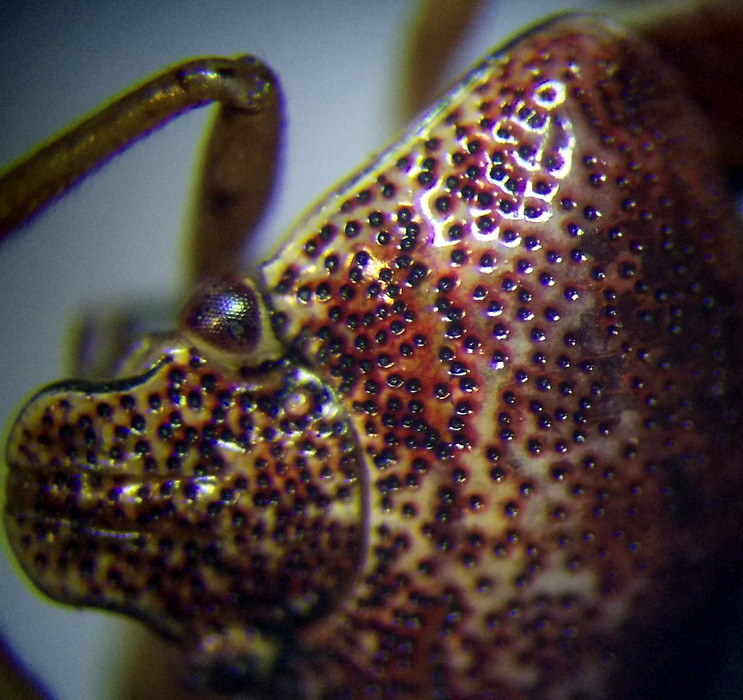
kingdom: Animalia
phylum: Arthropoda
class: Insecta
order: Hemiptera
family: Pentatomidae
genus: Stagonomus
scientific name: Stagonomus amoenus
